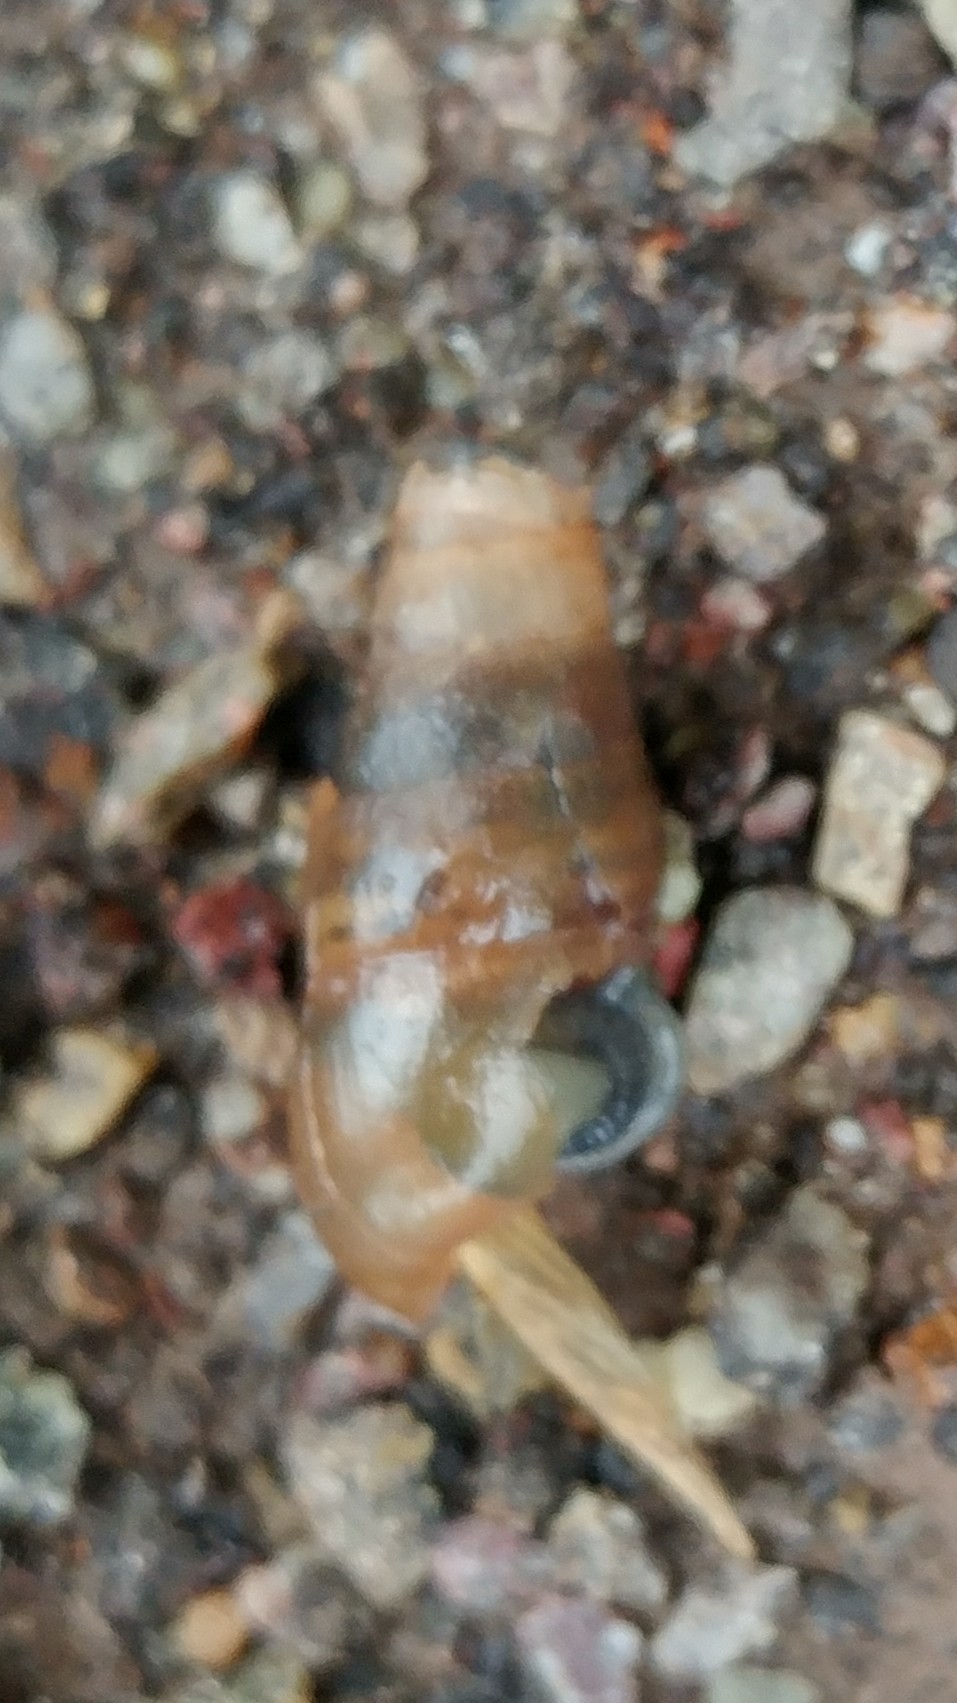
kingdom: Animalia
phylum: Mollusca
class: Gastropoda
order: Stylommatophora
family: Achatinidae
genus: Rumina
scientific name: Rumina decollata
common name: Decollate snail
